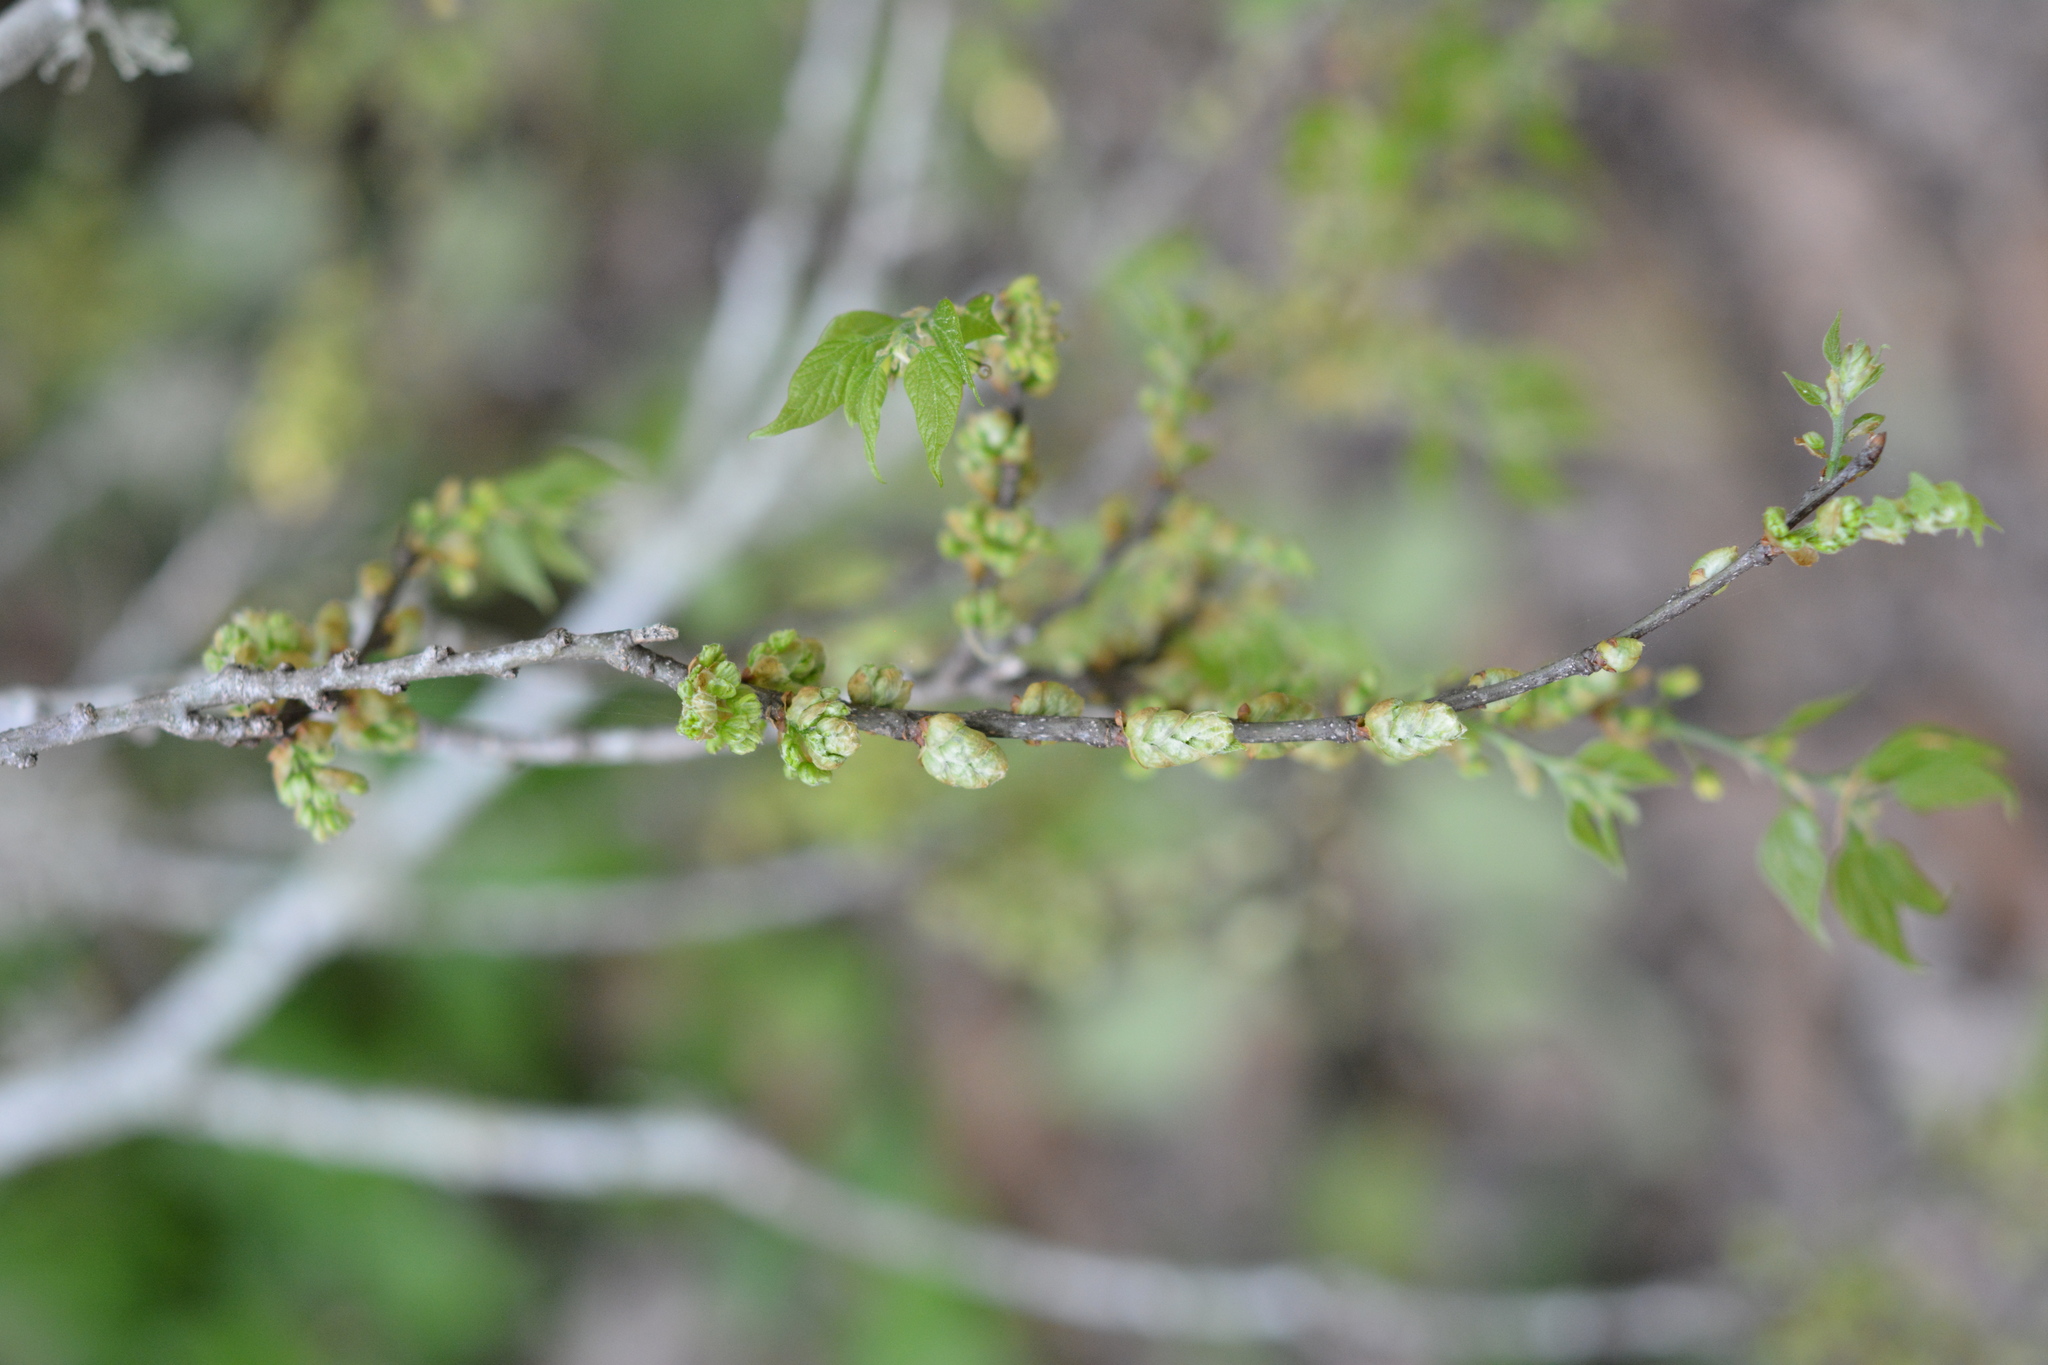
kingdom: Plantae
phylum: Tracheophyta
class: Magnoliopsida
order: Rosales
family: Cannabaceae
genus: Celtis
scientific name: Celtis laevigata
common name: Sugarberry
